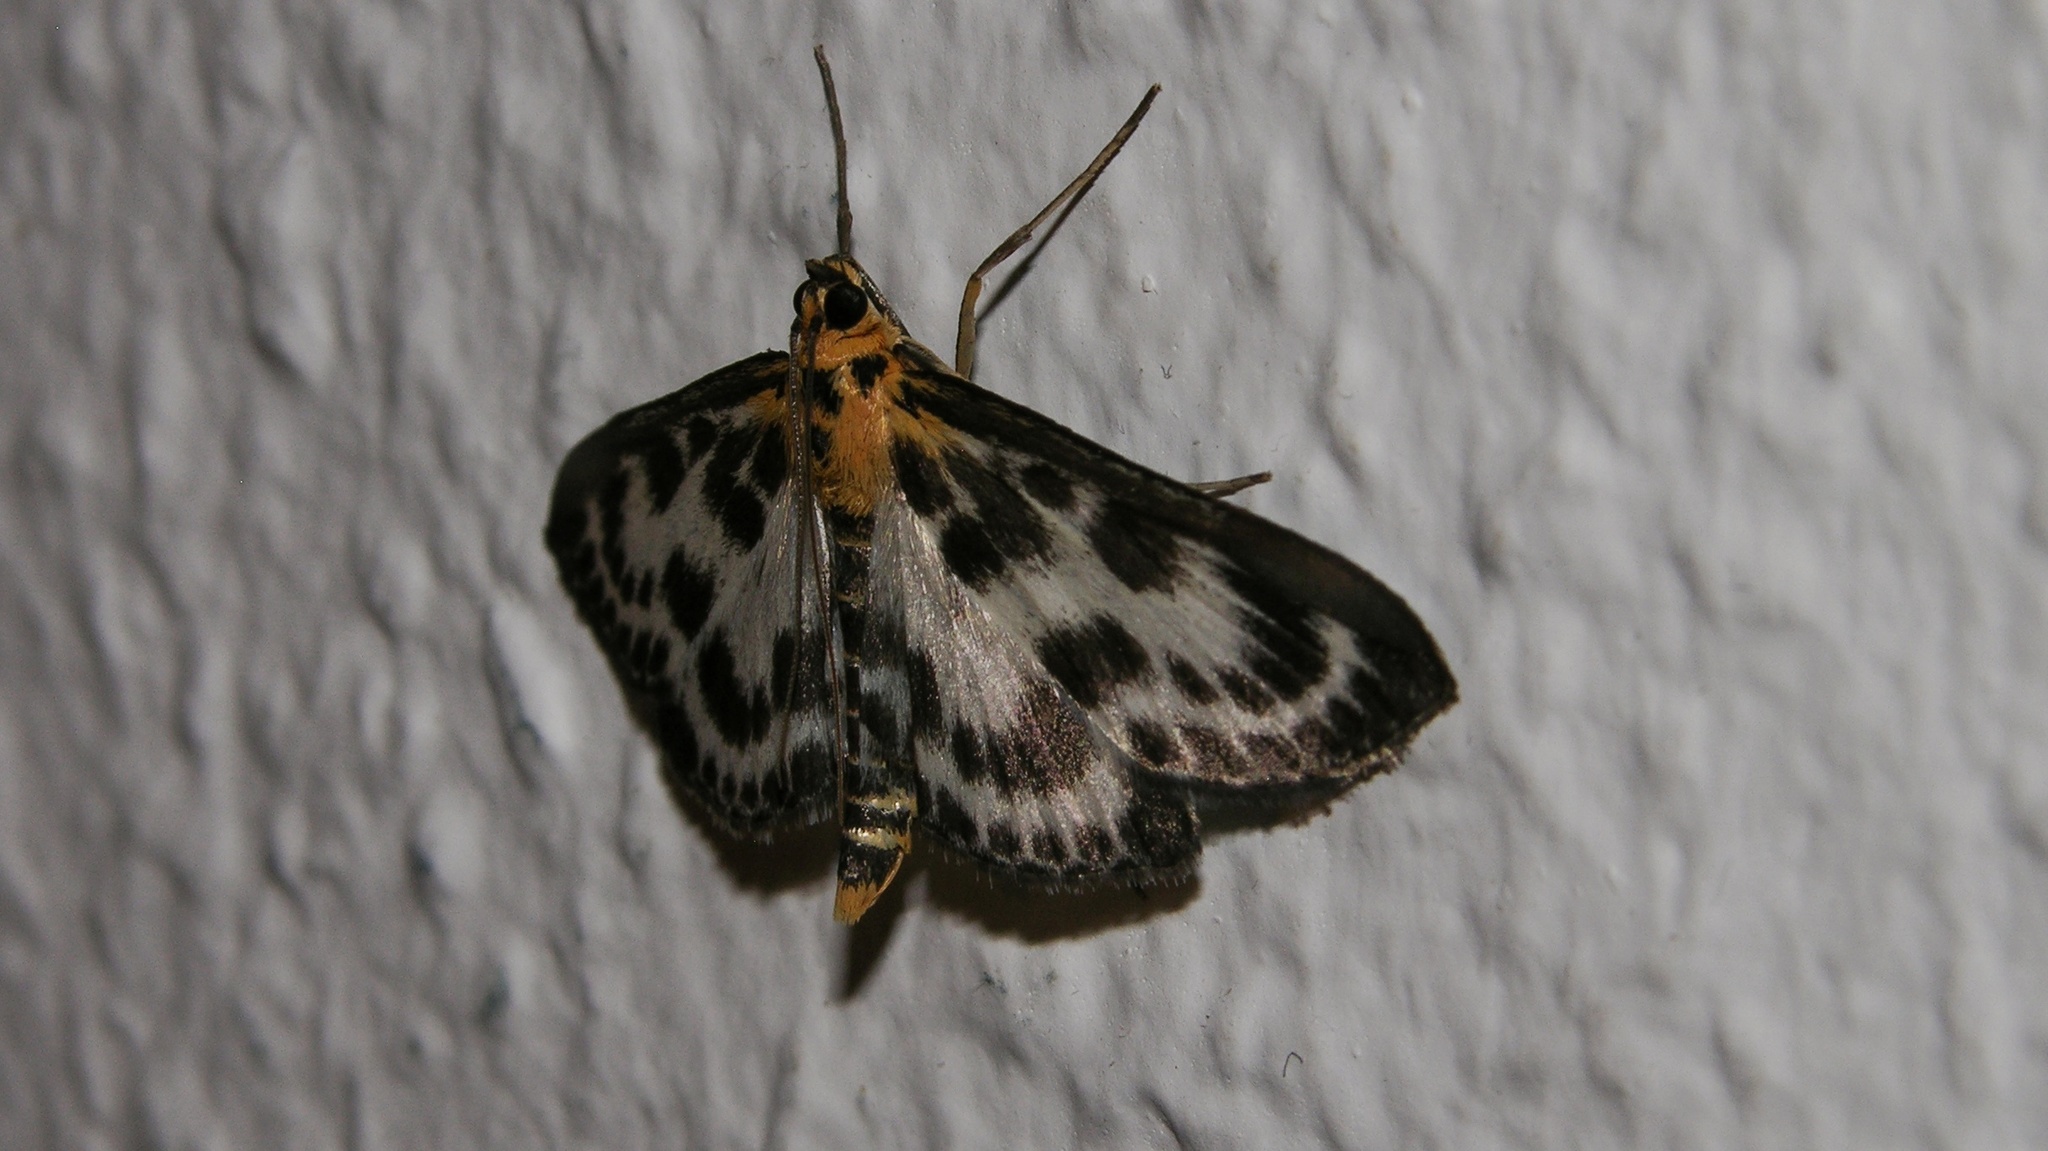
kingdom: Animalia
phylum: Arthropoda
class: Insecta
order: Lepidoptera
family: Crambidae
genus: Anania
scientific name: Anania hortulata
